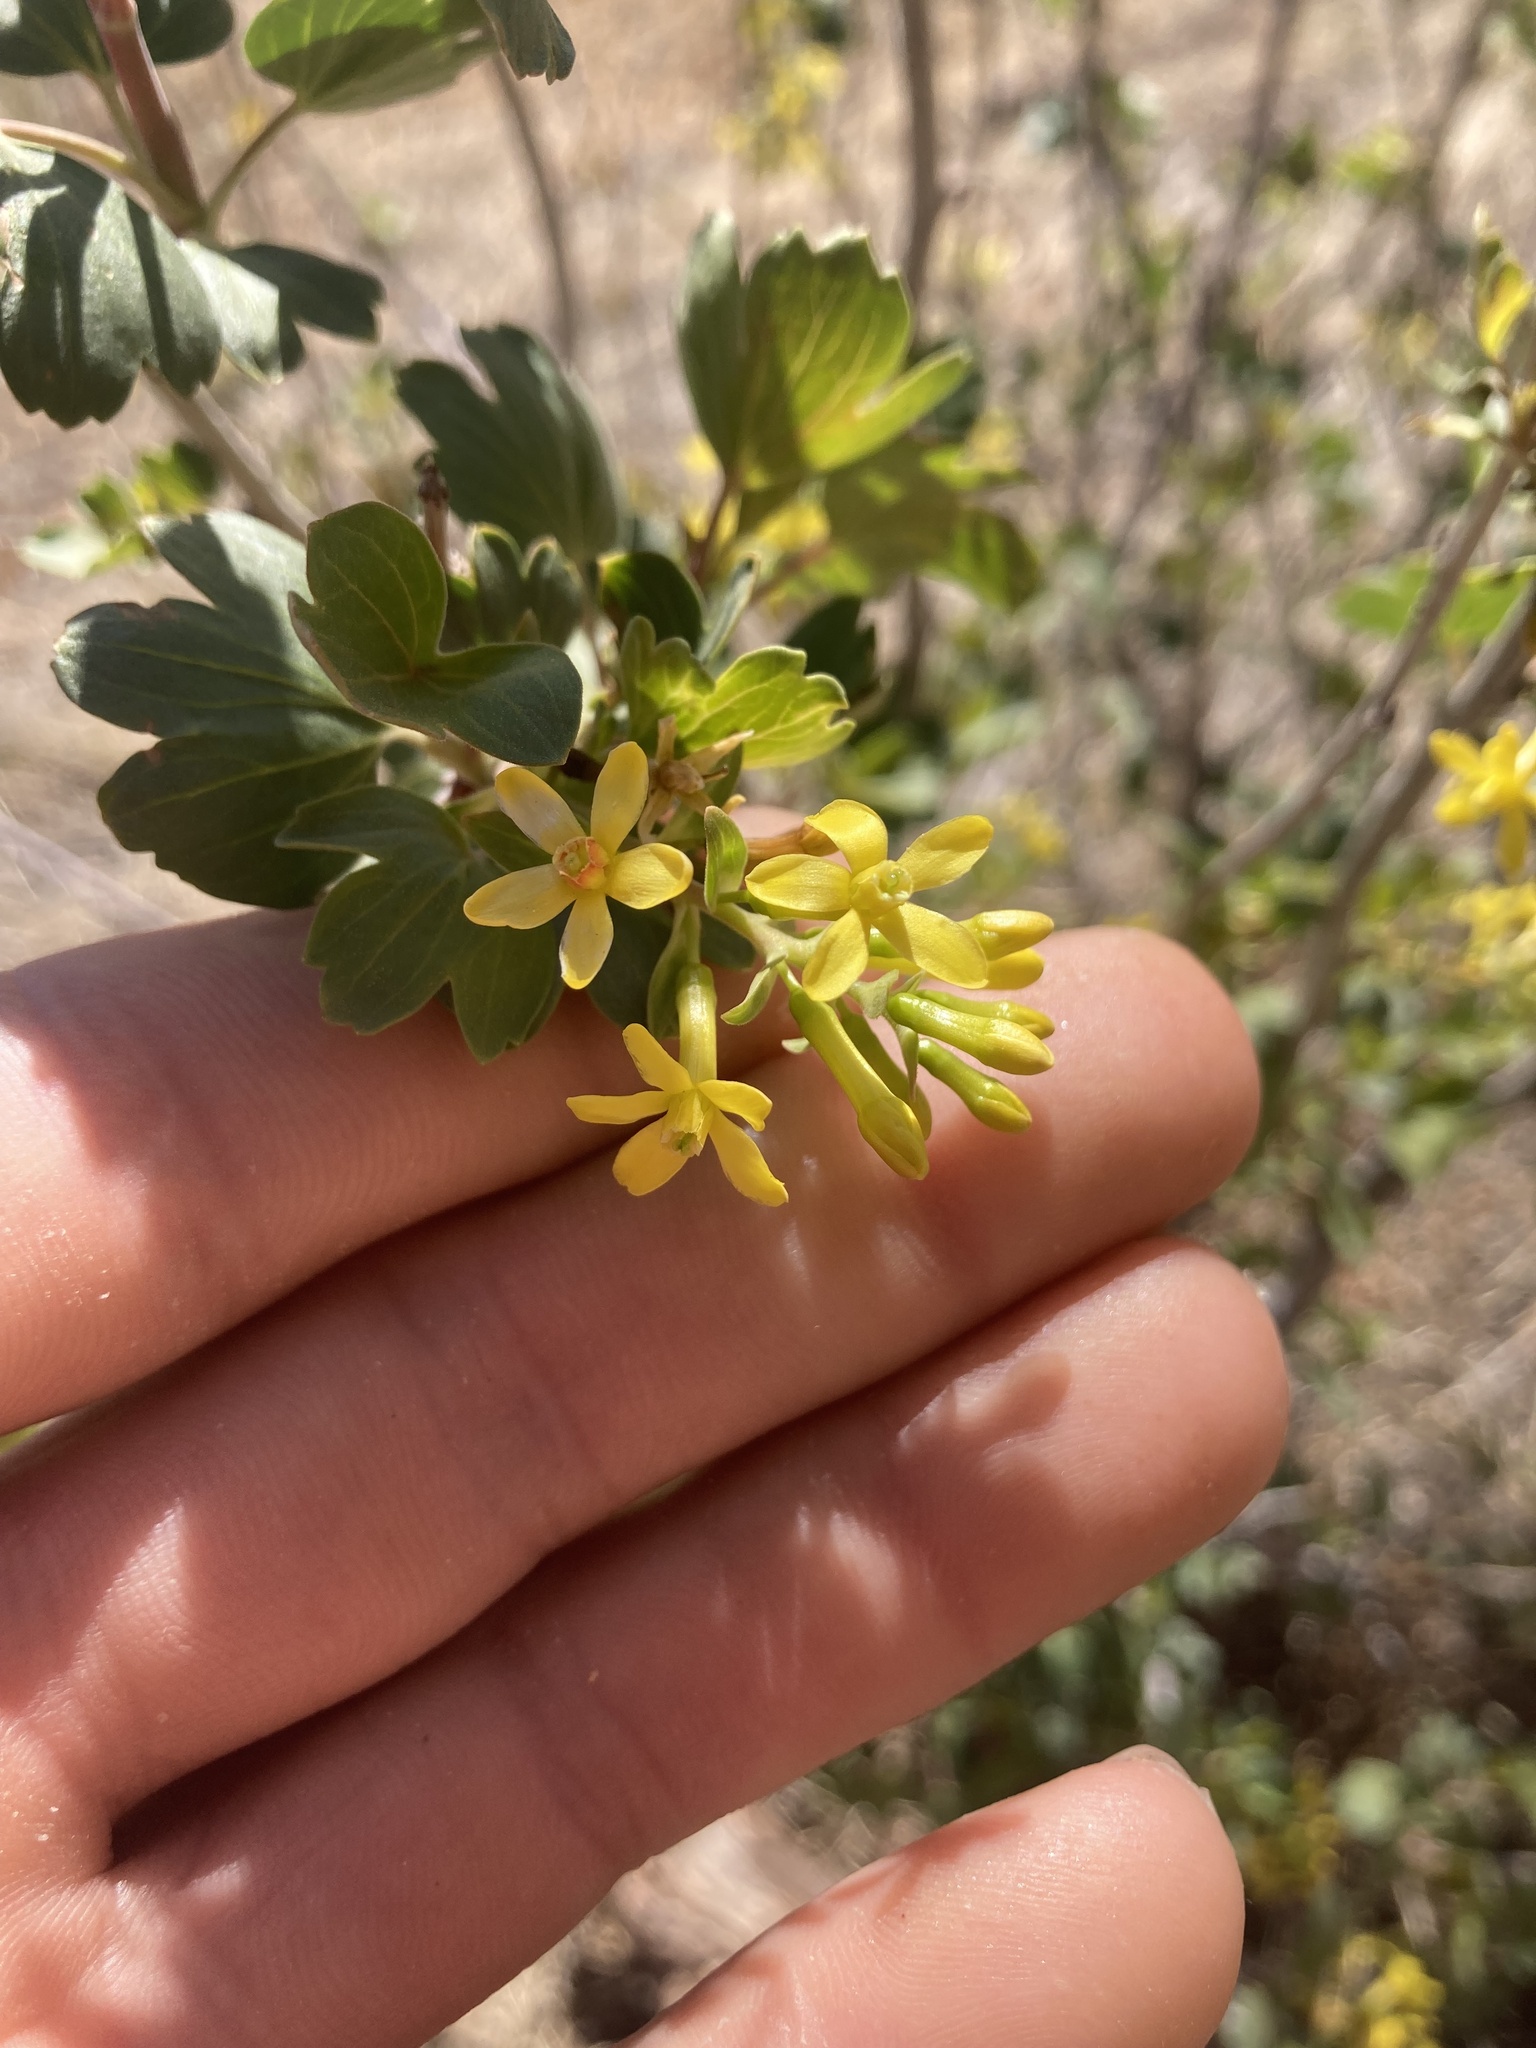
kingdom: Plantae
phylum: Tracheophyta
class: Magnoliopsida
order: Saxifragales
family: Grossulariaceae
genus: Ribes
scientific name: Ribes aureum
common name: Golden currant
